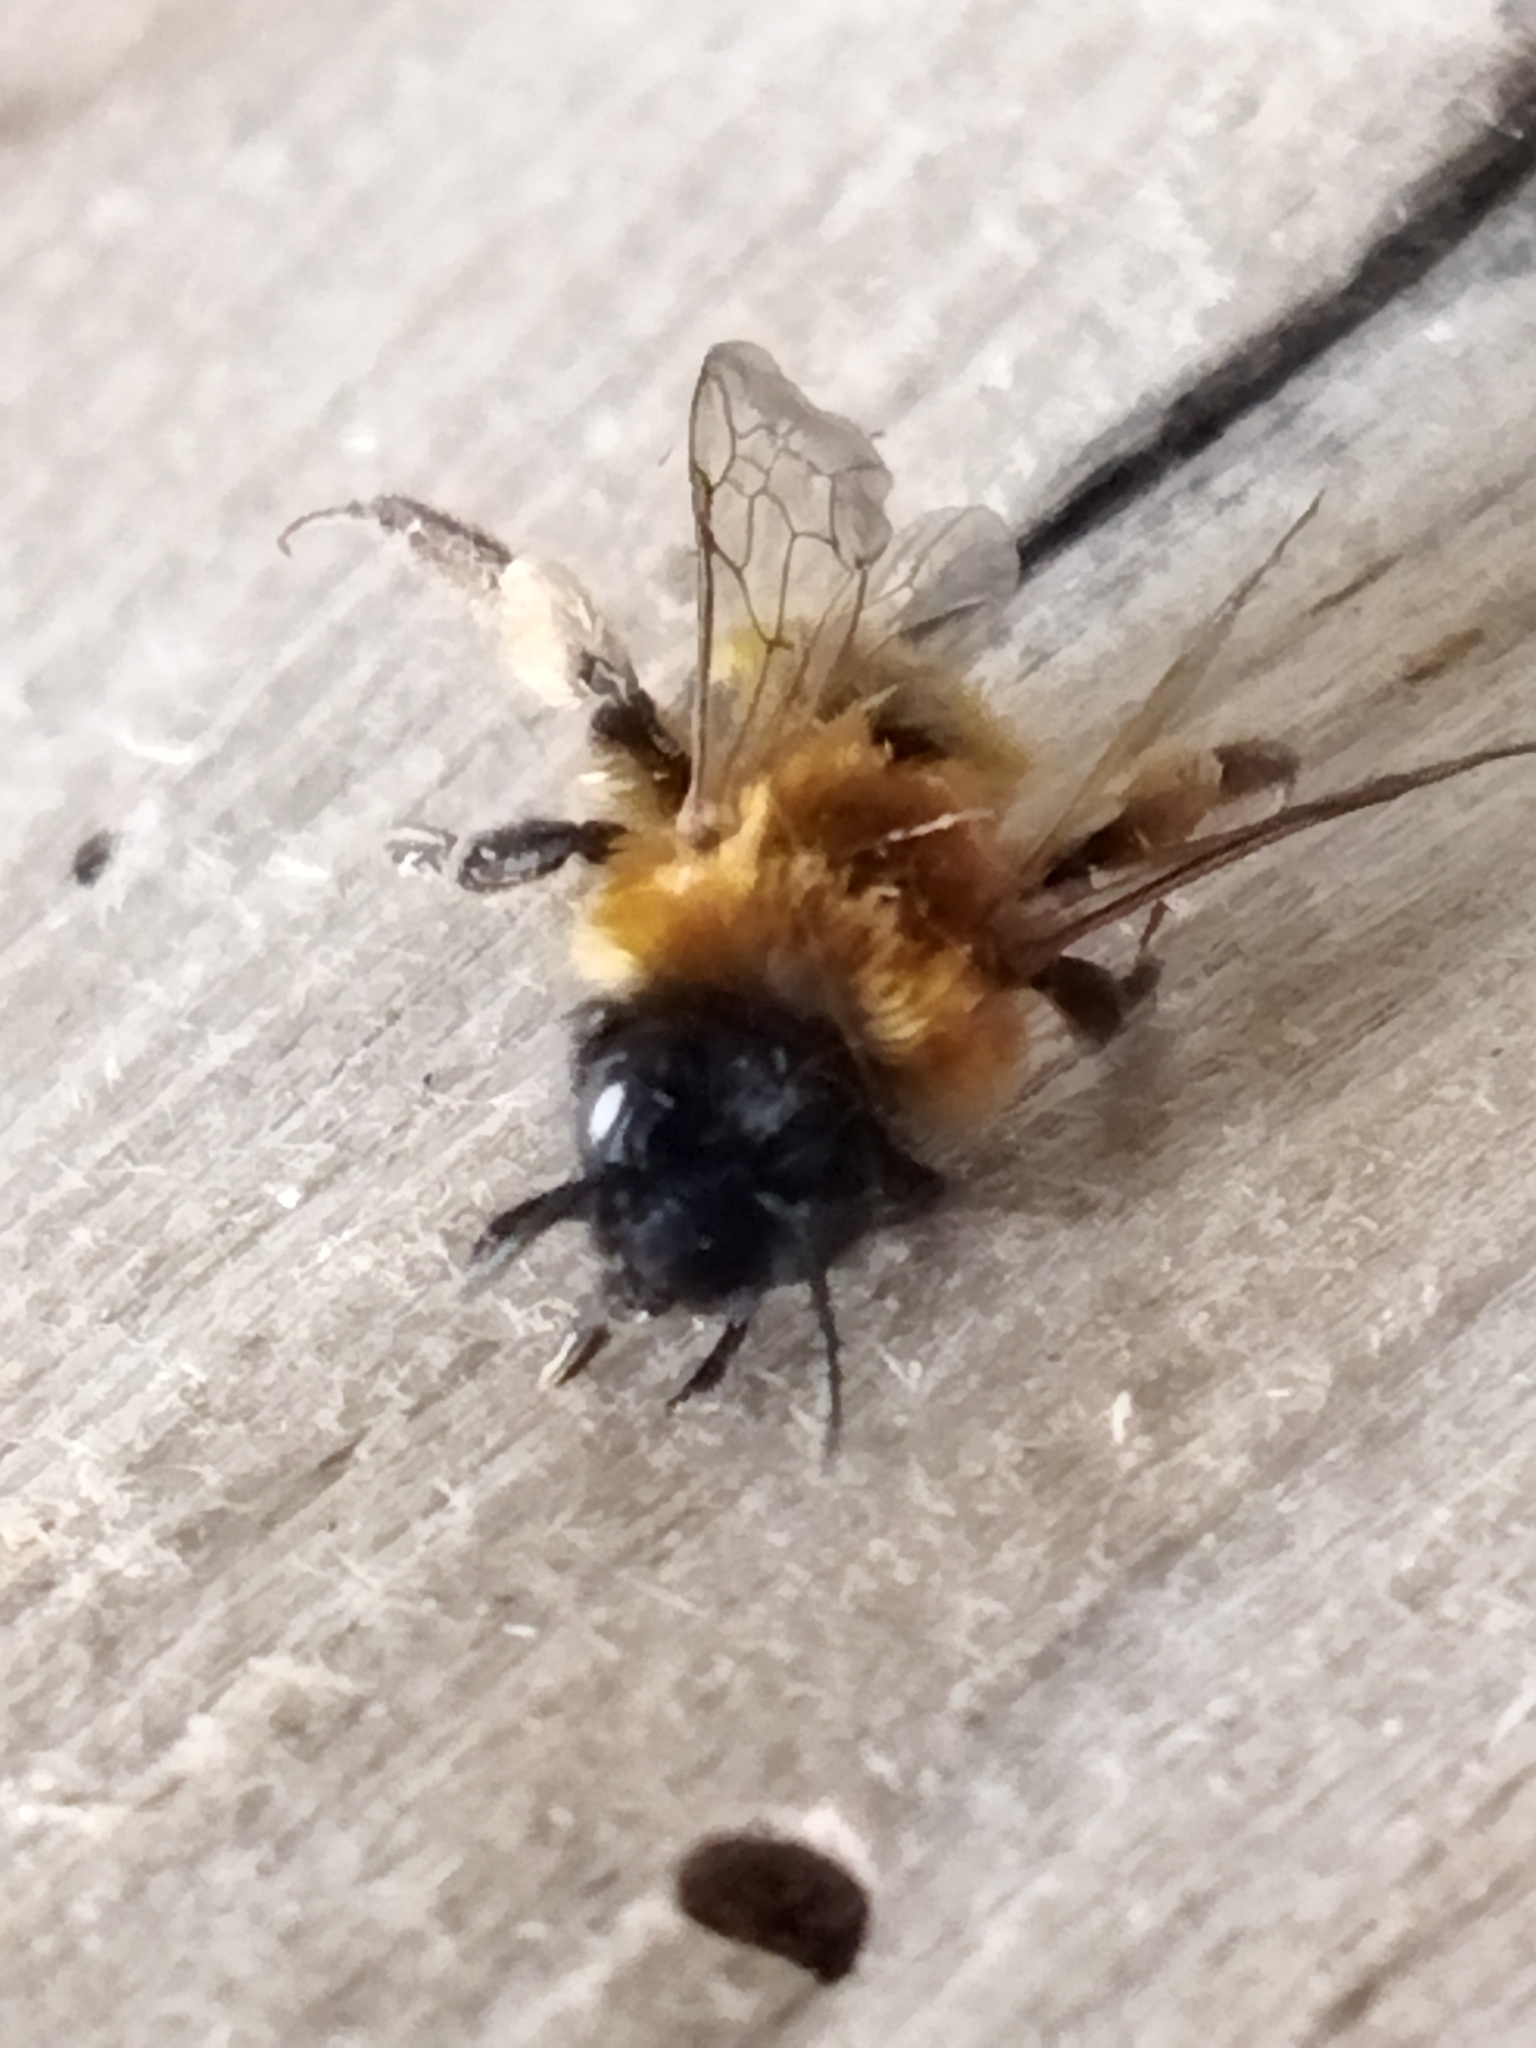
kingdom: Animalia
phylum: Arthropoda
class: Insecta
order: Hymenoptera
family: Andrenidae
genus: Andrena
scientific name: Andrena
